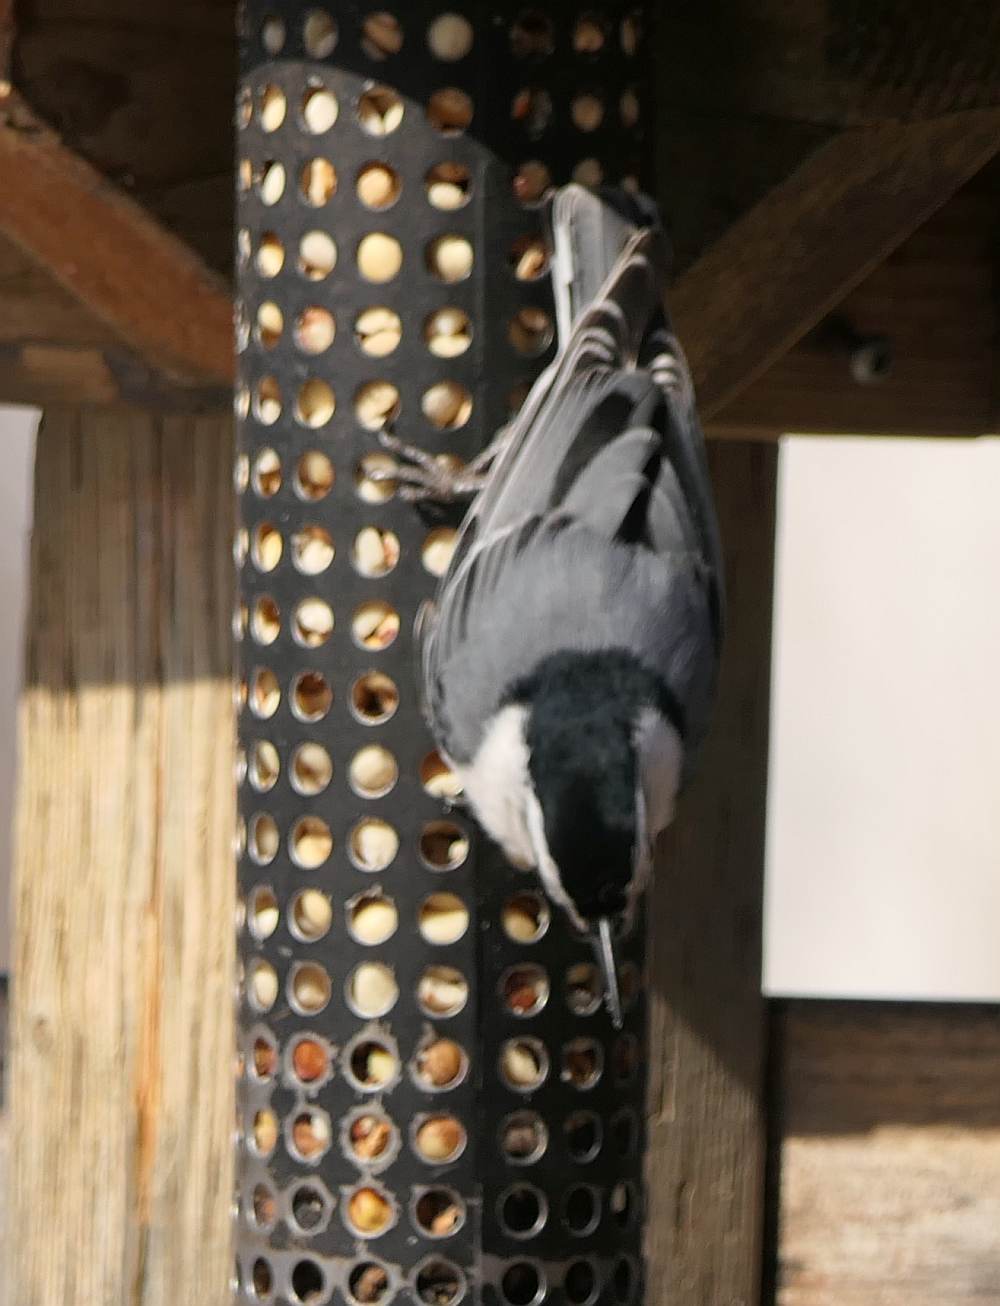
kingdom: Animalia
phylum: Chordata
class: Aves
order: Passeriformes
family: Sittidae
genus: Sitta
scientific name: Sitta carolinensis
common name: White-breasted nuthatch
